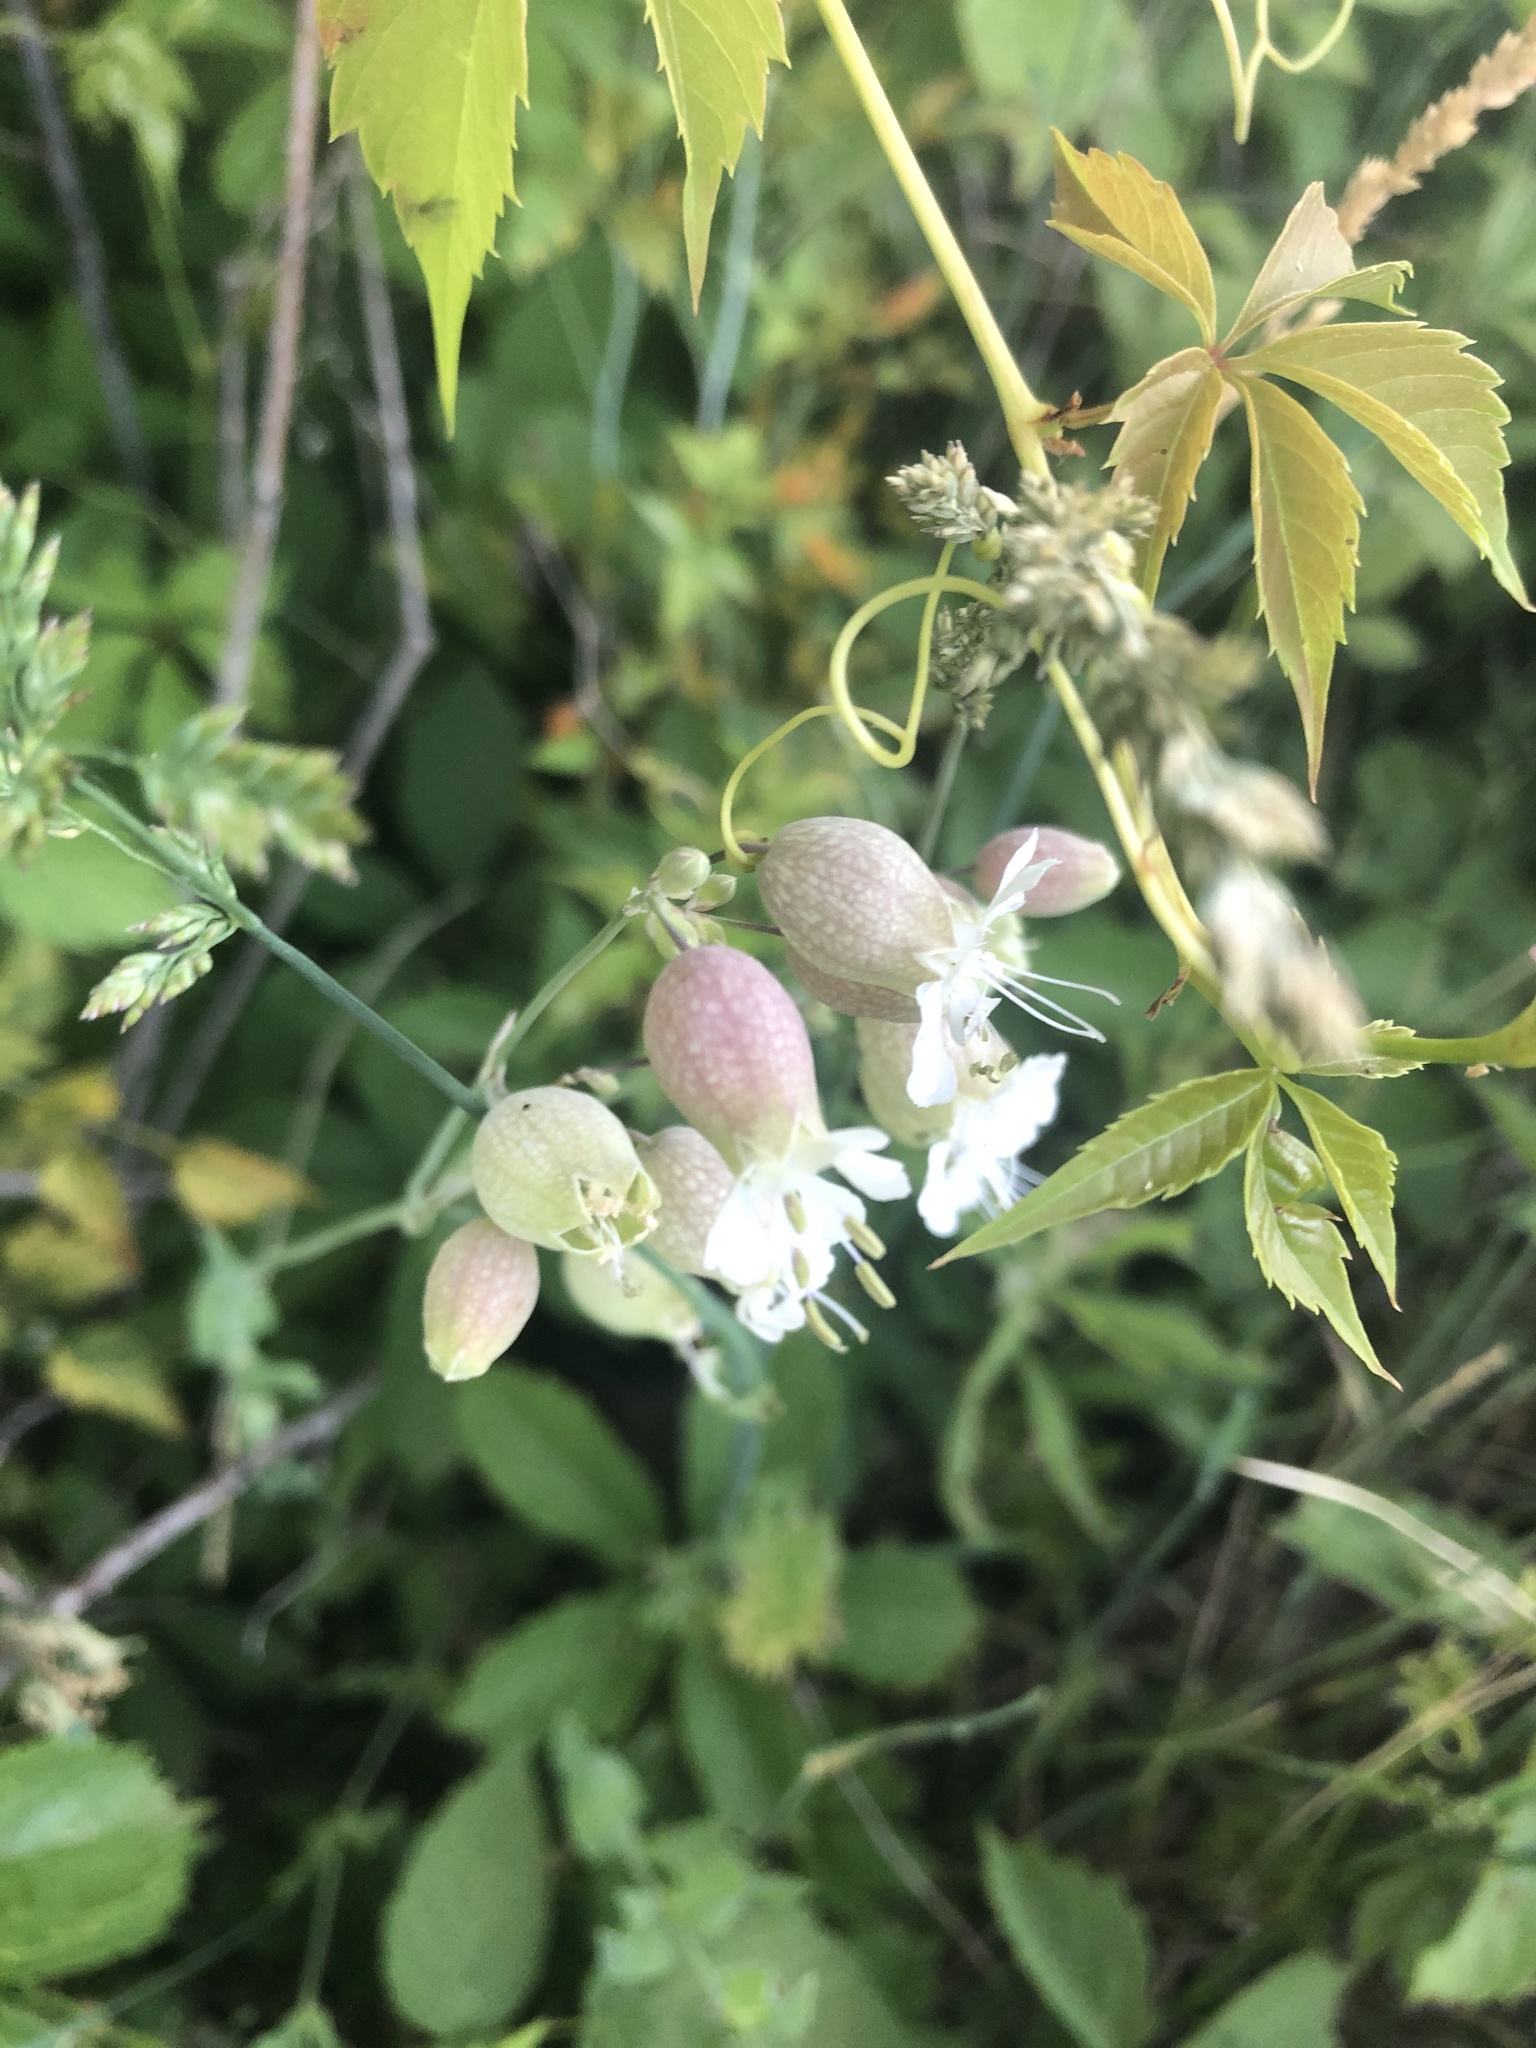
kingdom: Plantae
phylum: Tracheophyta
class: Magnoliopsida
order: Caryophyllales
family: Caryophyllaceae
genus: Silene
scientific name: Silene vulgaris
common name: Bladder campion
